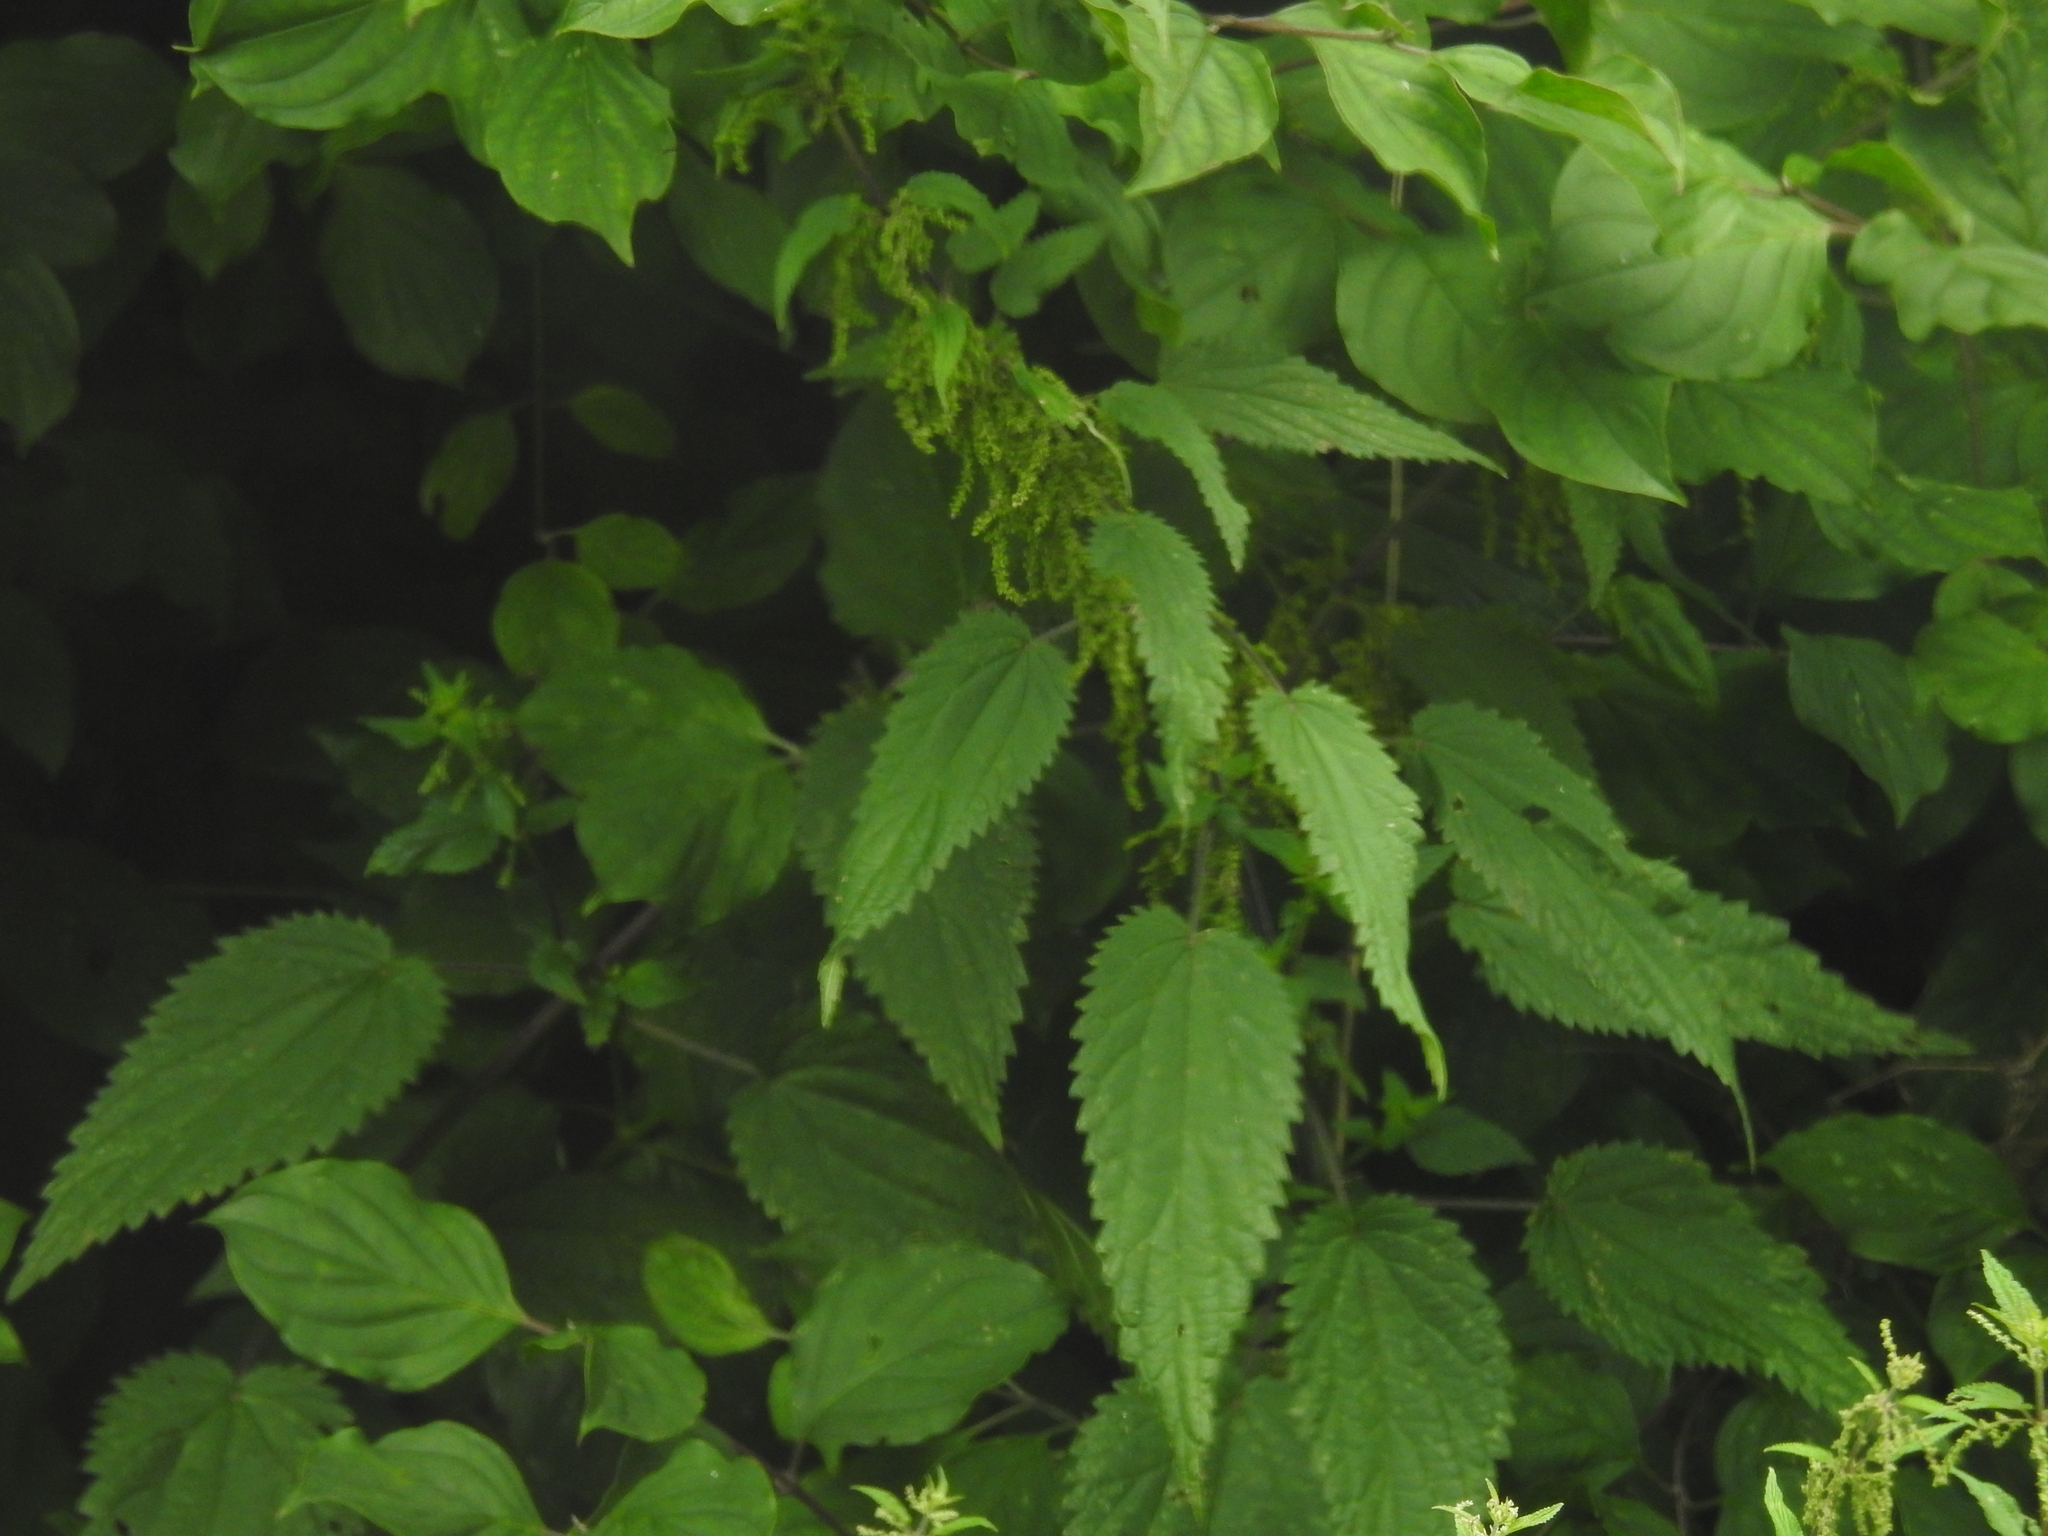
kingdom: Plantae
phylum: Tracheophyta
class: Magnoliopsida
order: Rosales
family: Urticaceae
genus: Urtica
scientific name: Urtica dioica
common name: Common nettle
